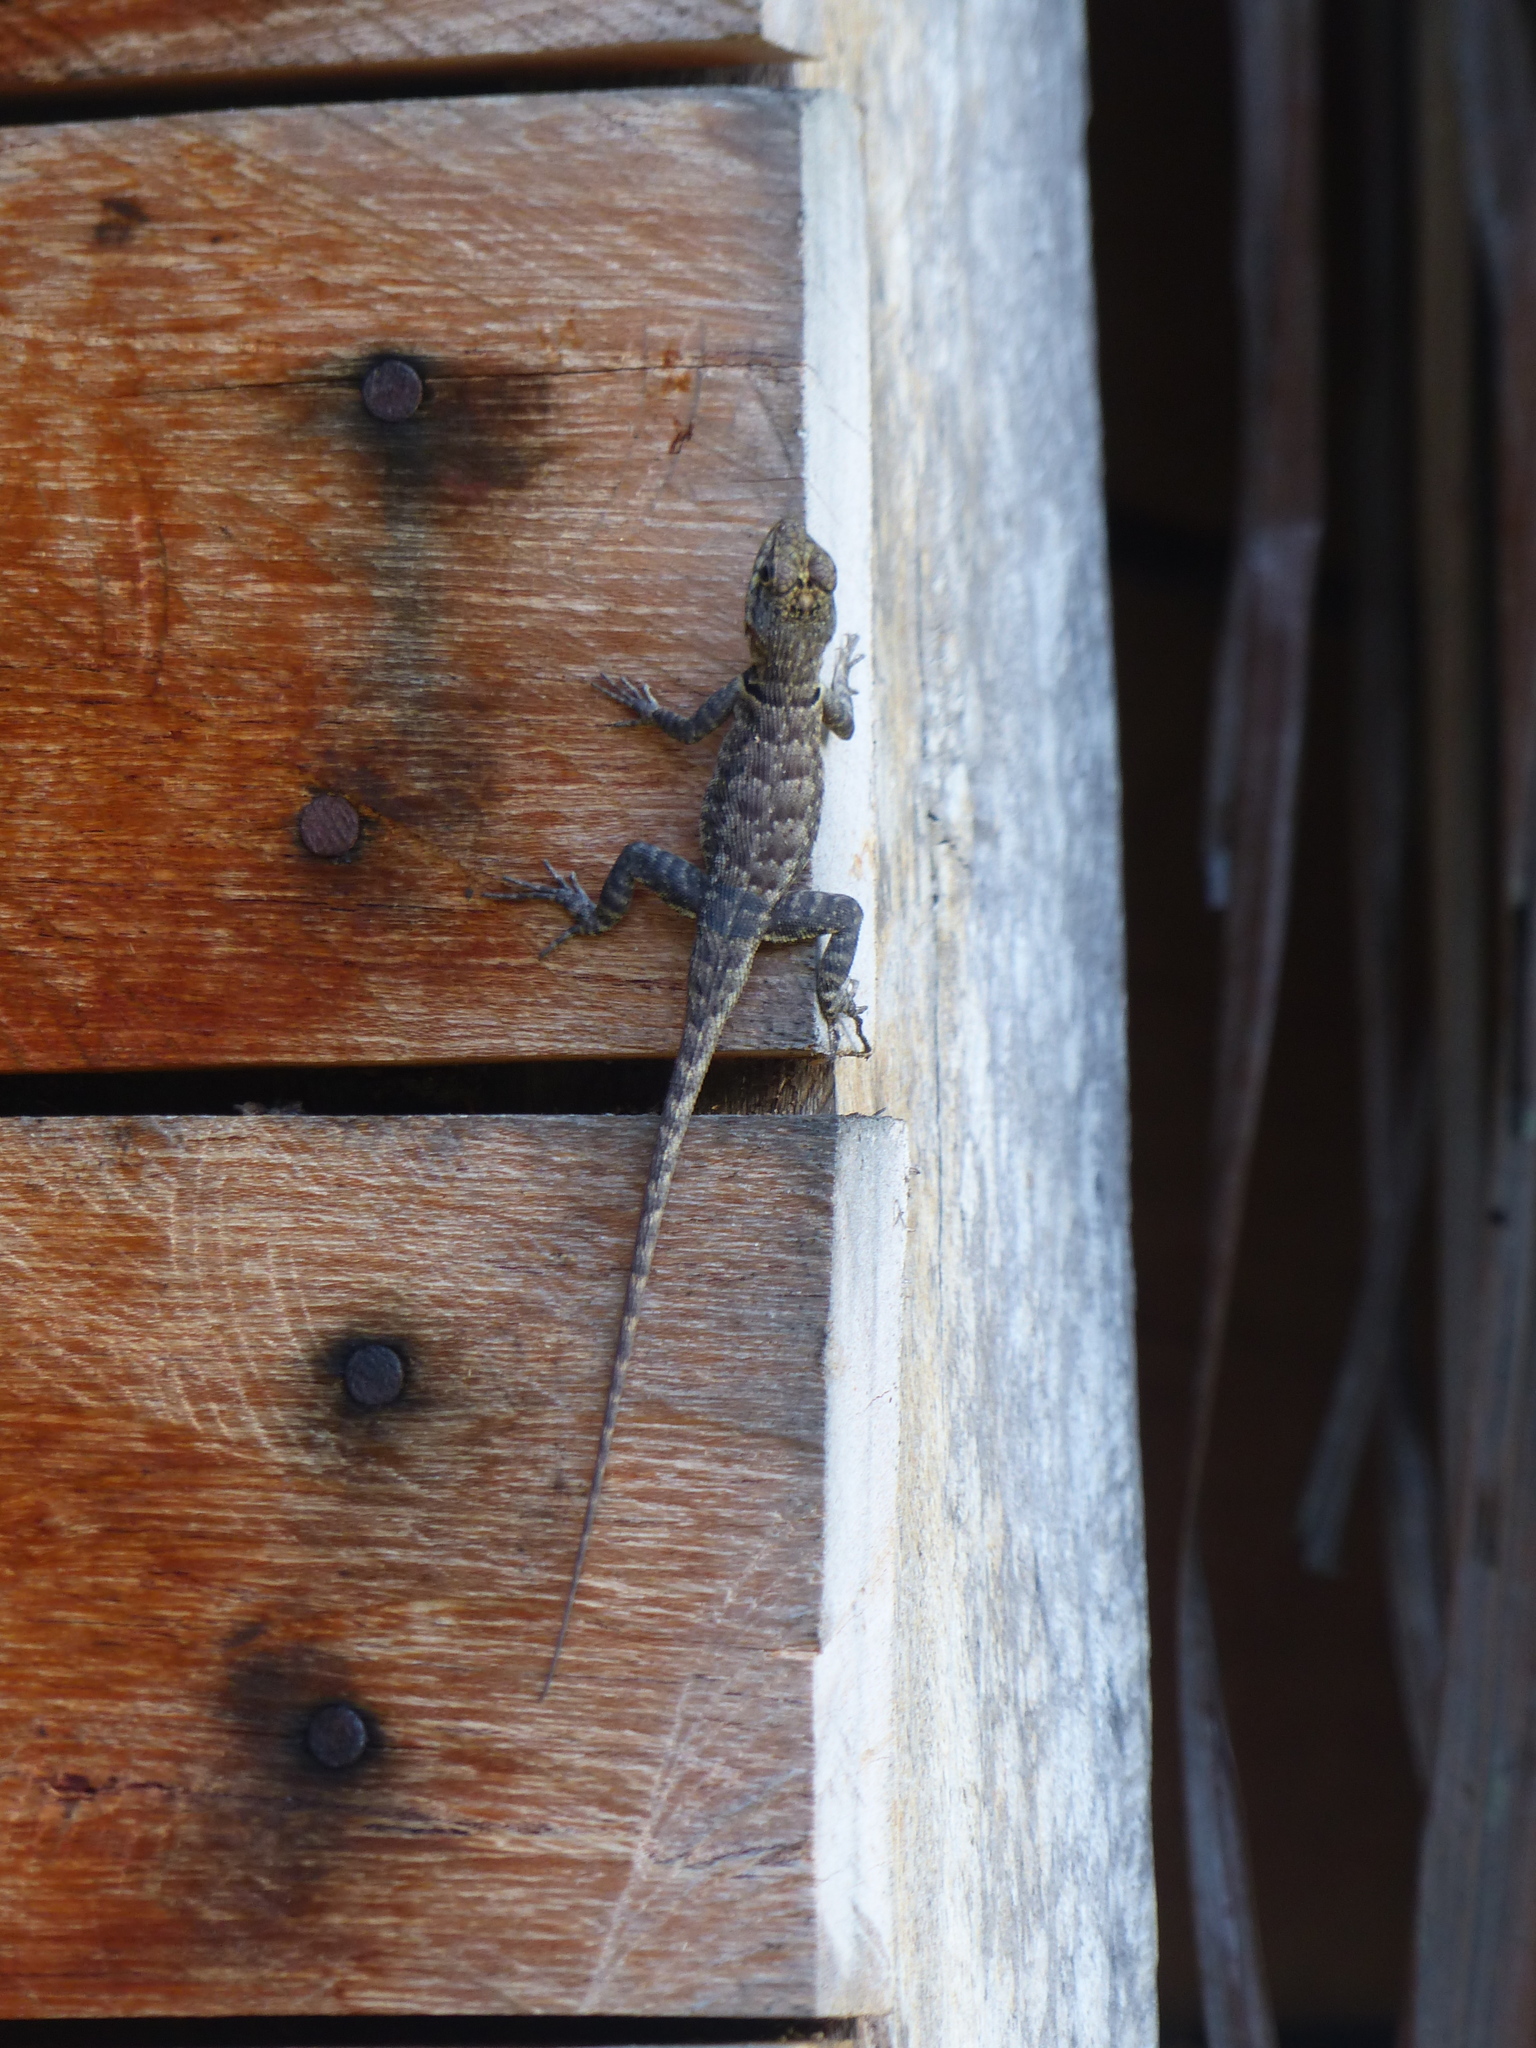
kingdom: Animalia
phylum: Chordata
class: Squamata
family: Tropiduridae
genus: Tropidurus
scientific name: Tropidurus hispidus
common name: Peters' lava lizard
